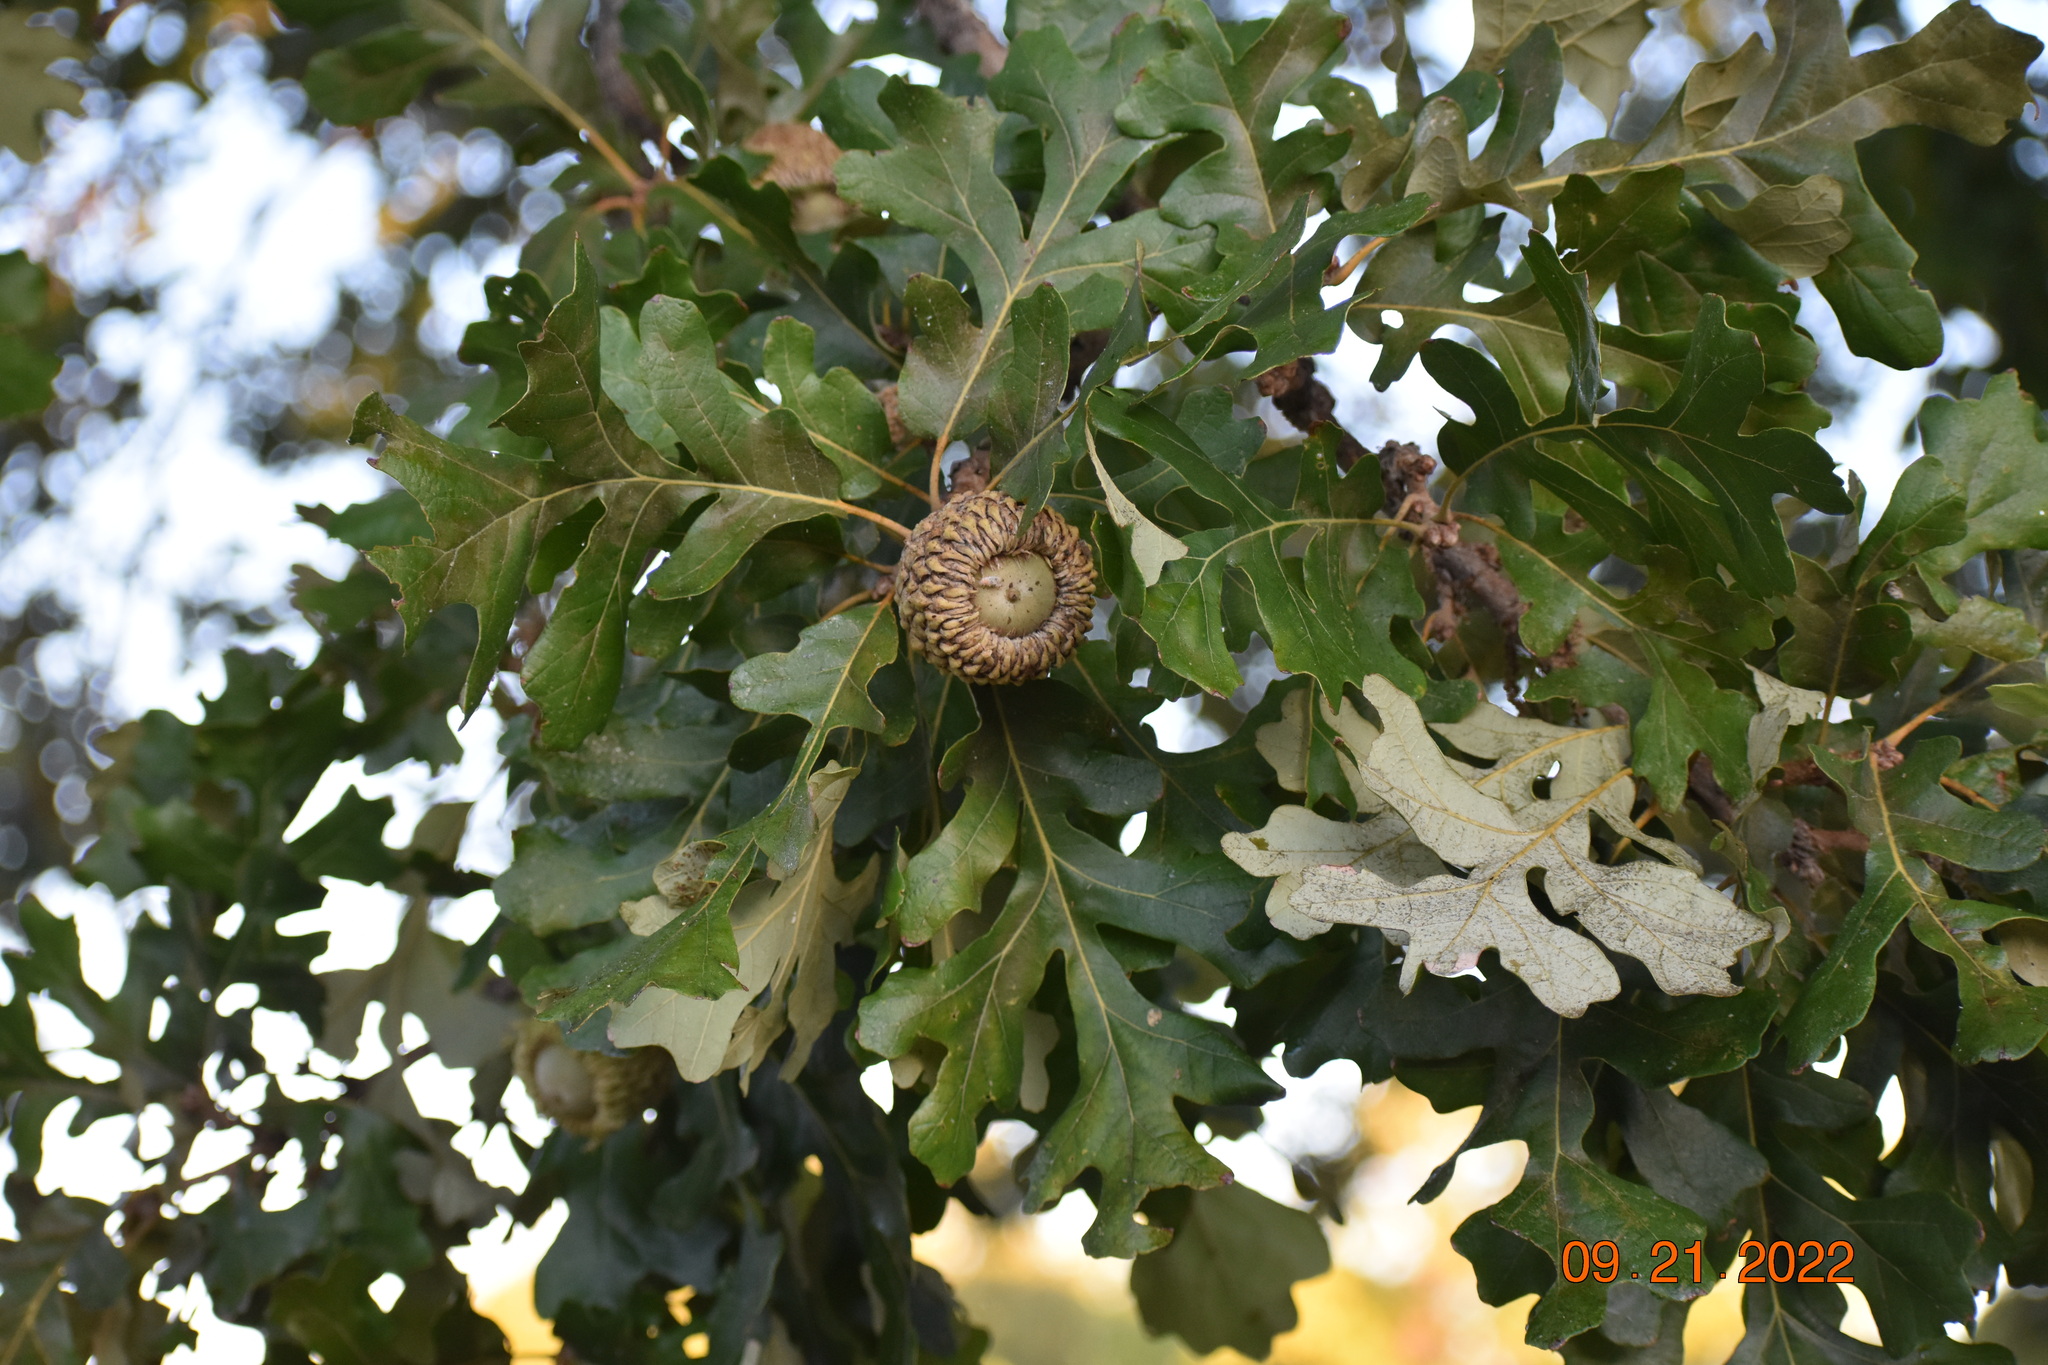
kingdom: Plantae
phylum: Tracheophyta
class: Magnoliopsida
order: Fagales
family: Fagaceae
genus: Quercus
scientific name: Quercus macrocarpa
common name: Bur oak
